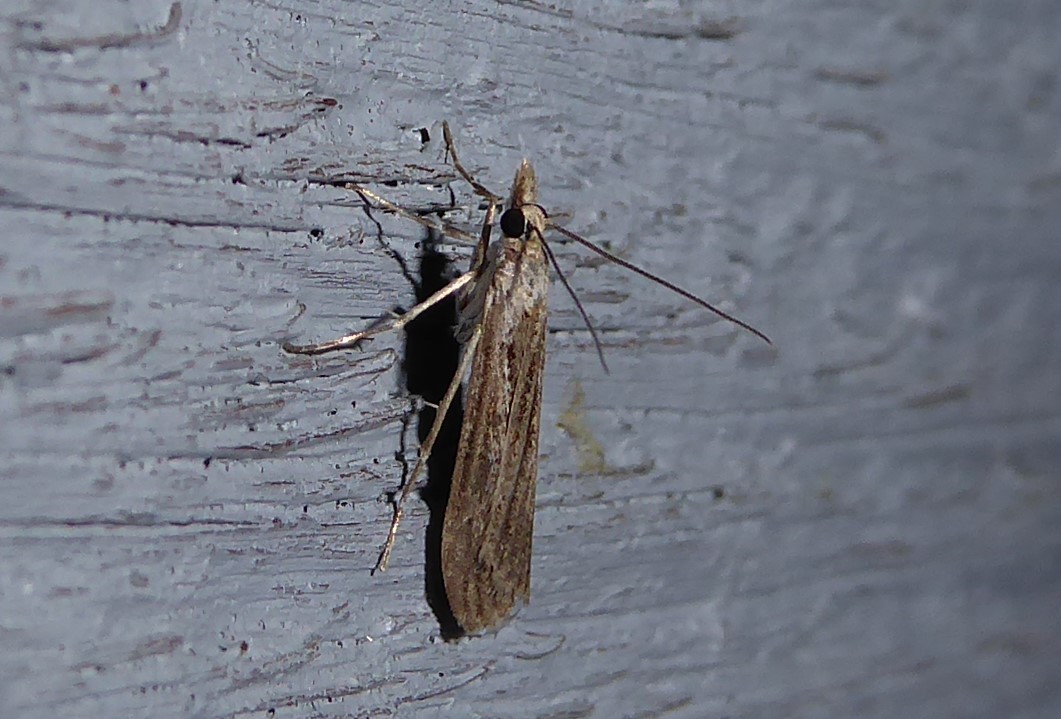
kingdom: Animalia
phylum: Arthropoda
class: Insecta
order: Lepidoptera
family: Crambidae
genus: Eudonia
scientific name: Eudonia atmogramma
